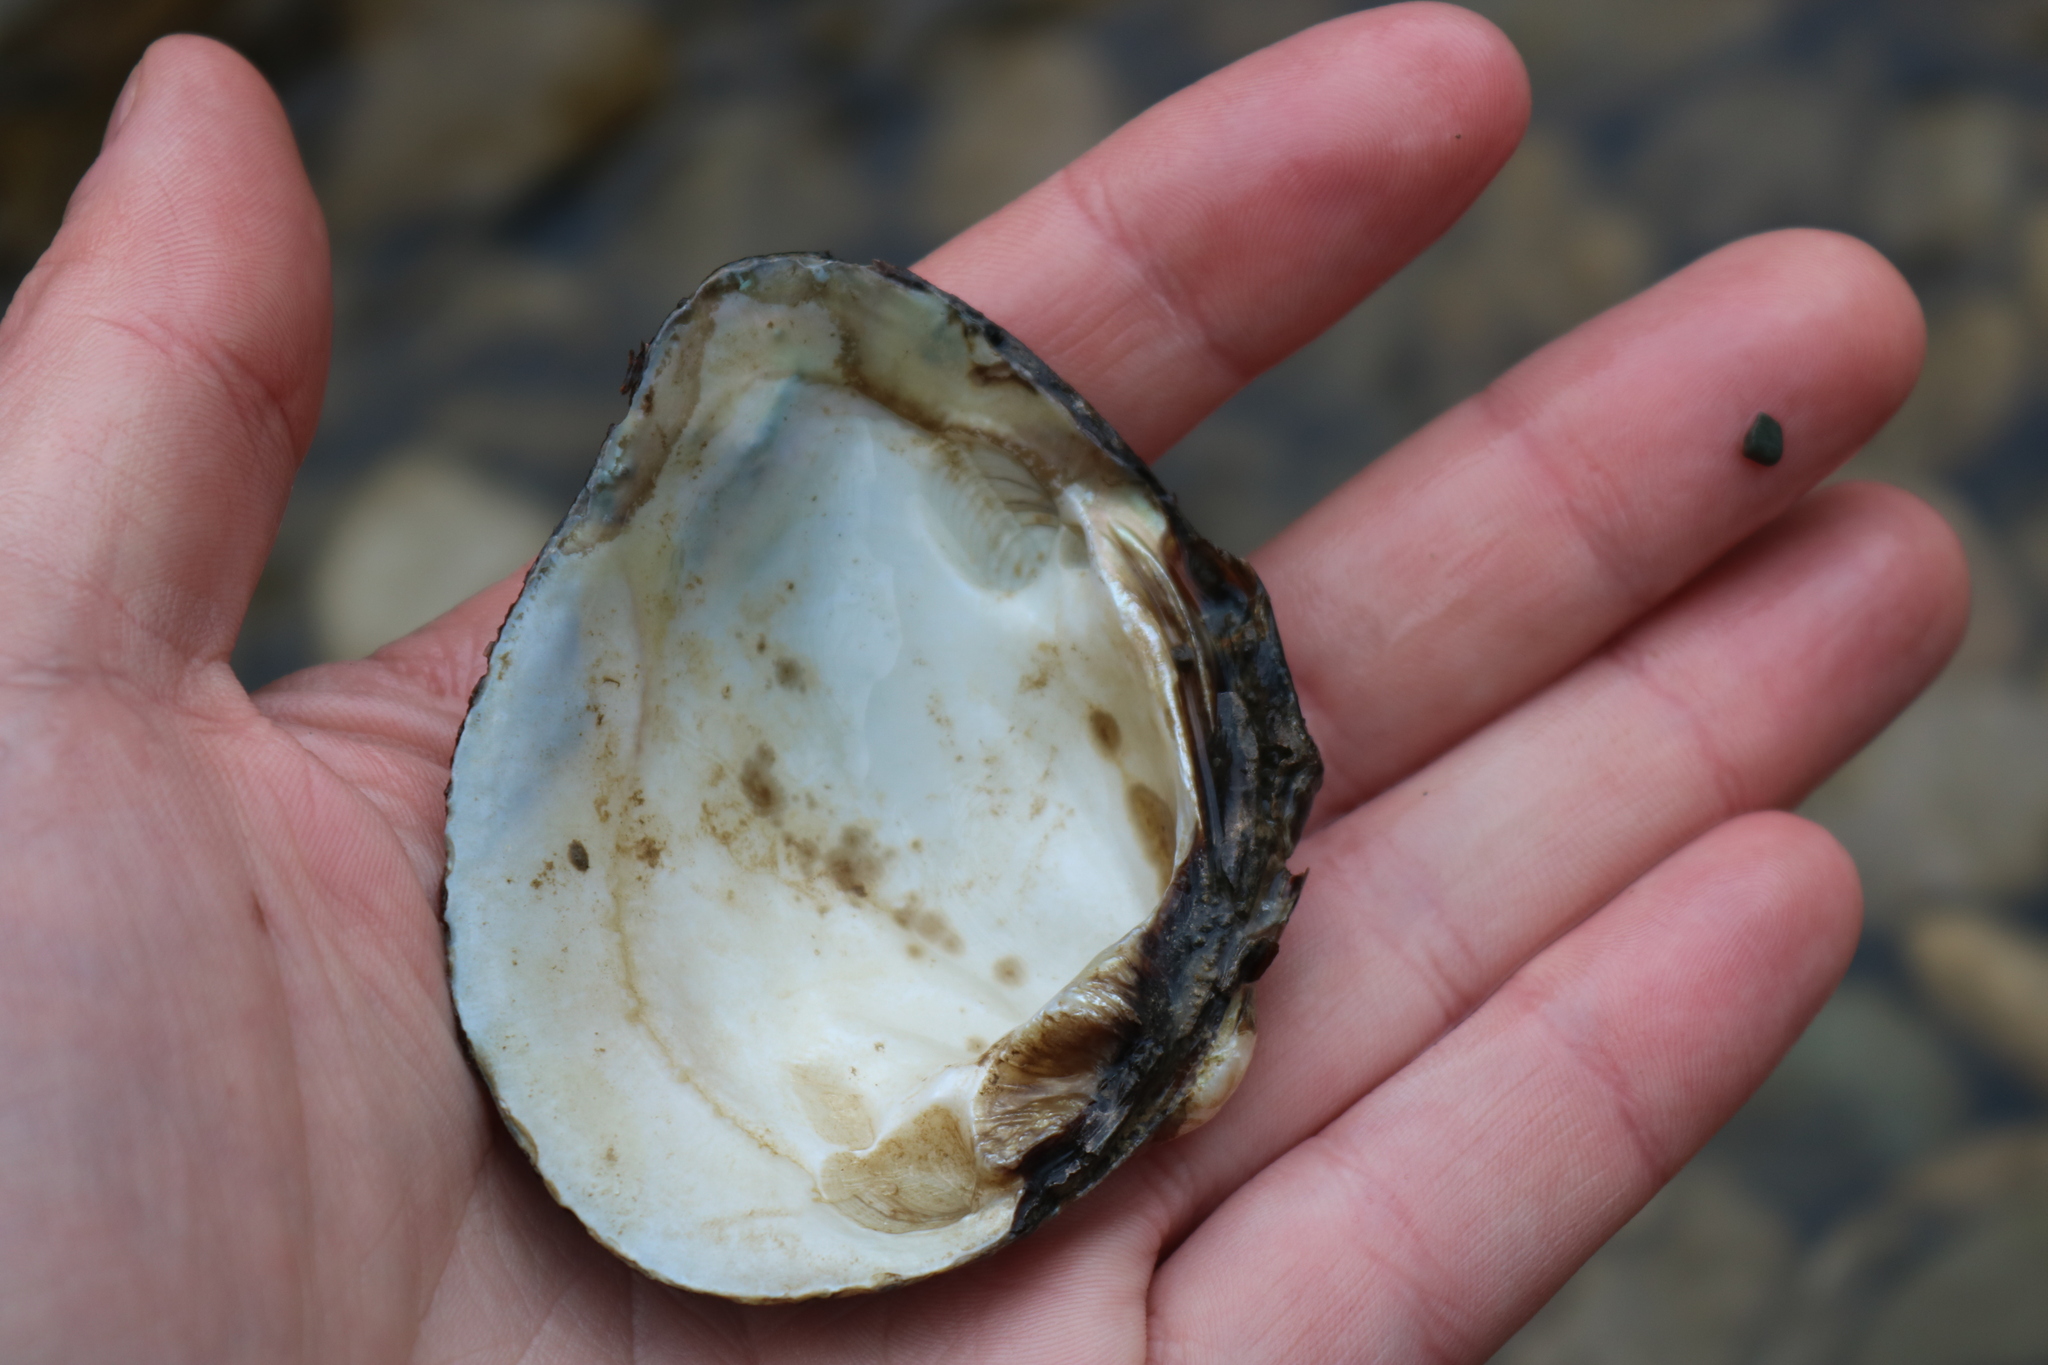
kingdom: Animalia
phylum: Mollusca
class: Bivalvia
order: Unionida
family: Unionidae
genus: Fusconaia
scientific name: Fusconaia flava
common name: Wabash pigtoe
